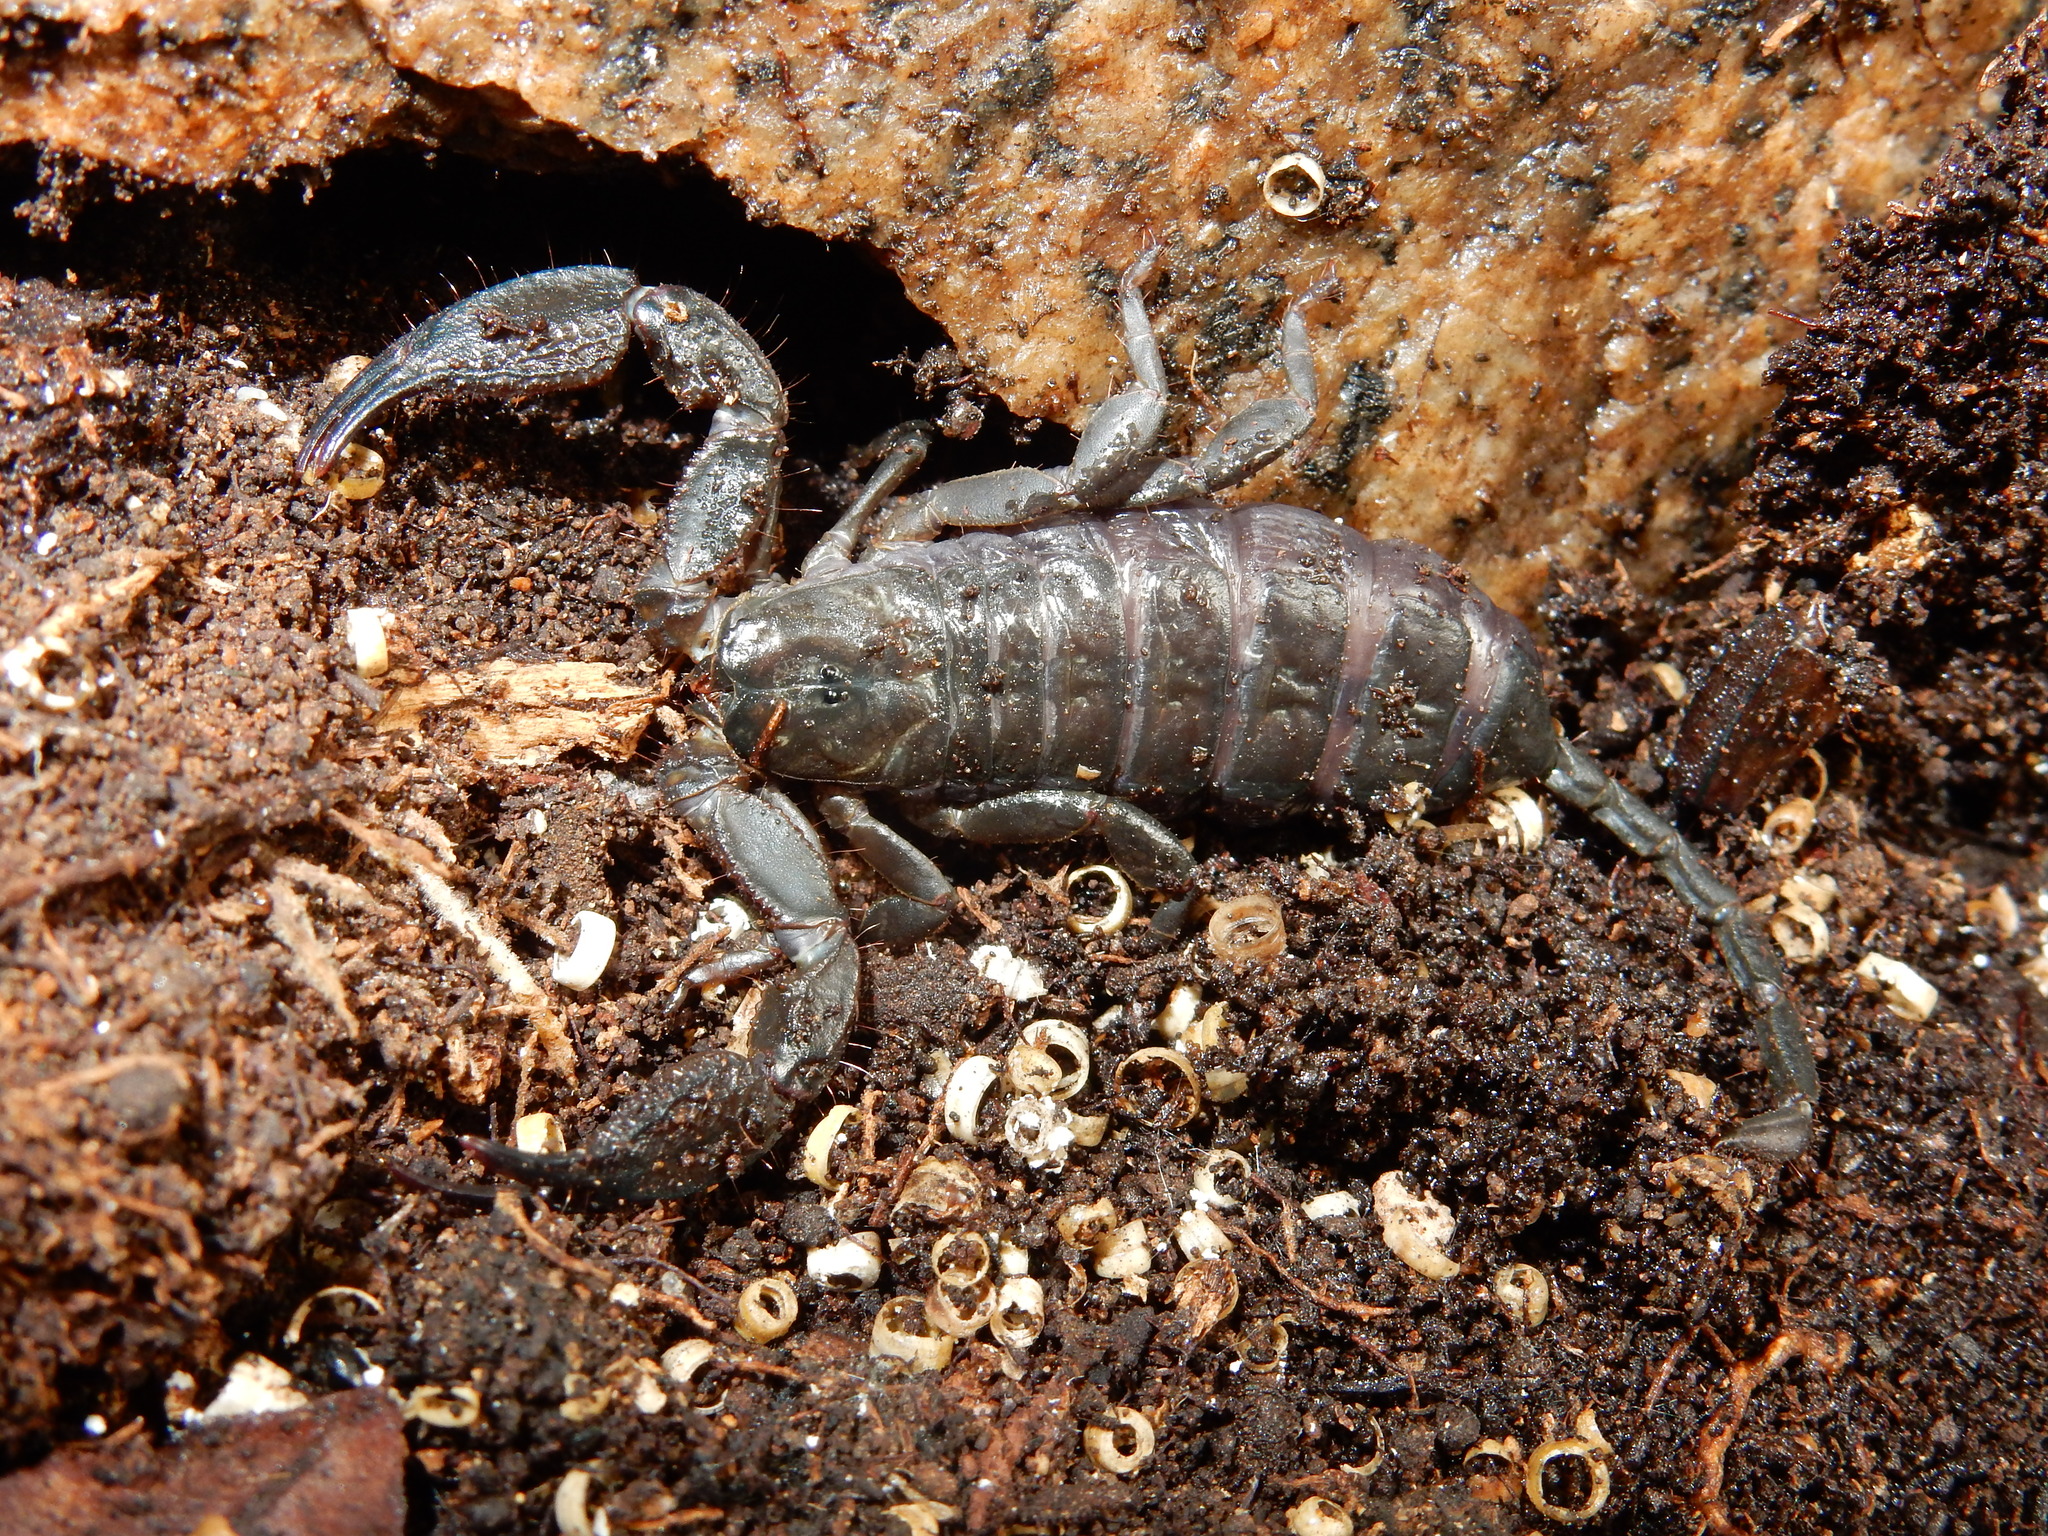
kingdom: Animalia
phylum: Arthropoda
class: Arachnida
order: Scorpiones
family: Hormuridae
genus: Opisthacanthus
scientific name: Opisthacanthus capensis
